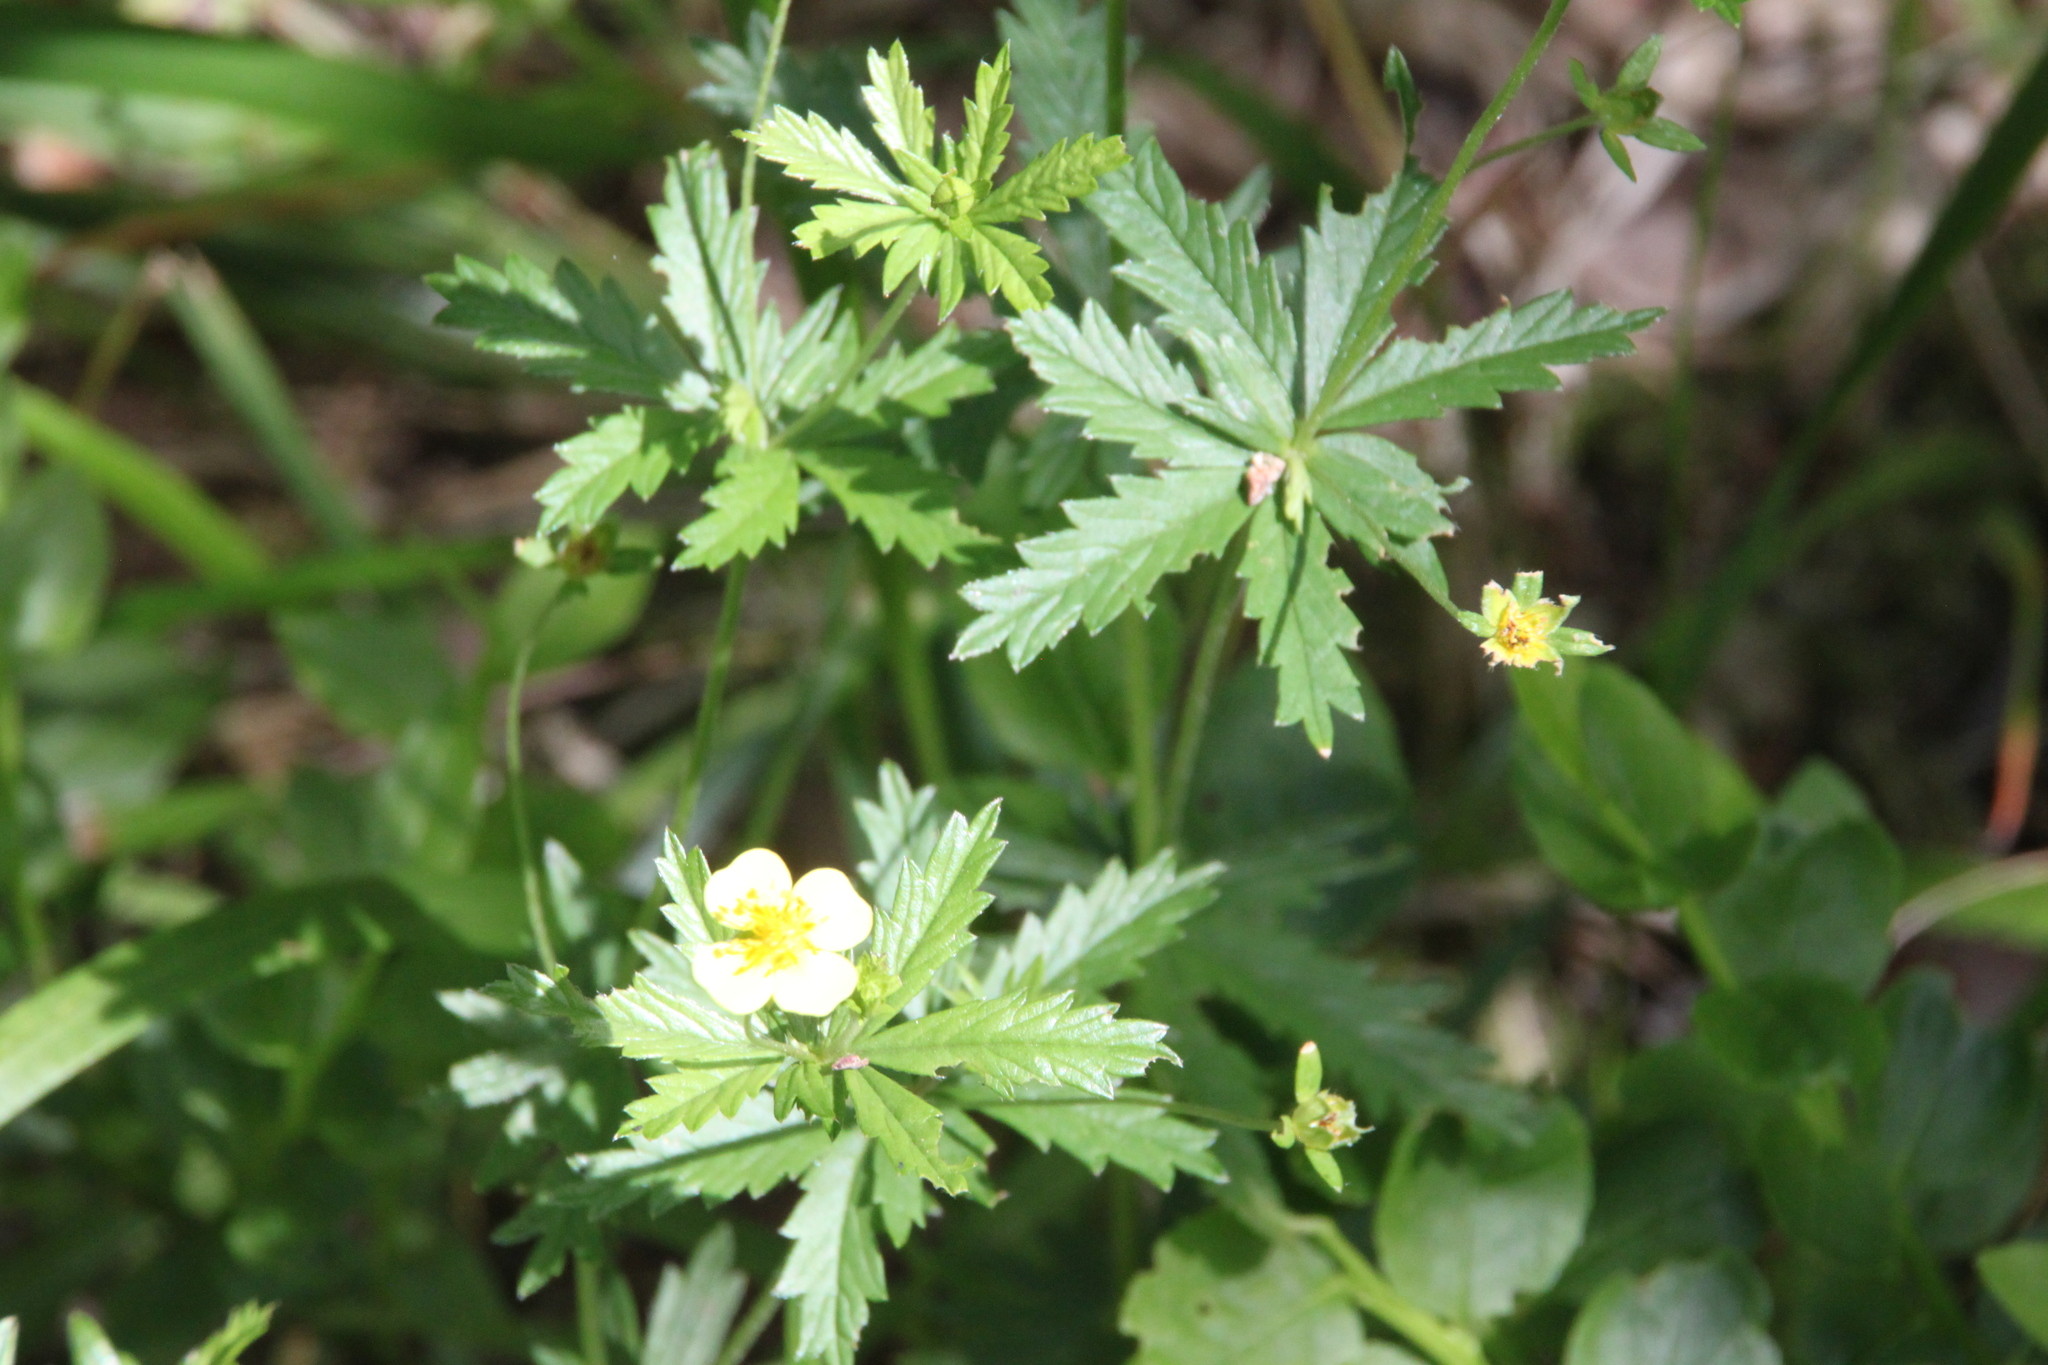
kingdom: Plantae
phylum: Tracheophyta
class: Magnoliopsida
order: Rosales
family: Rosaceae
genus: Potentilla
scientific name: Potentilla erecta
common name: Tormentil
